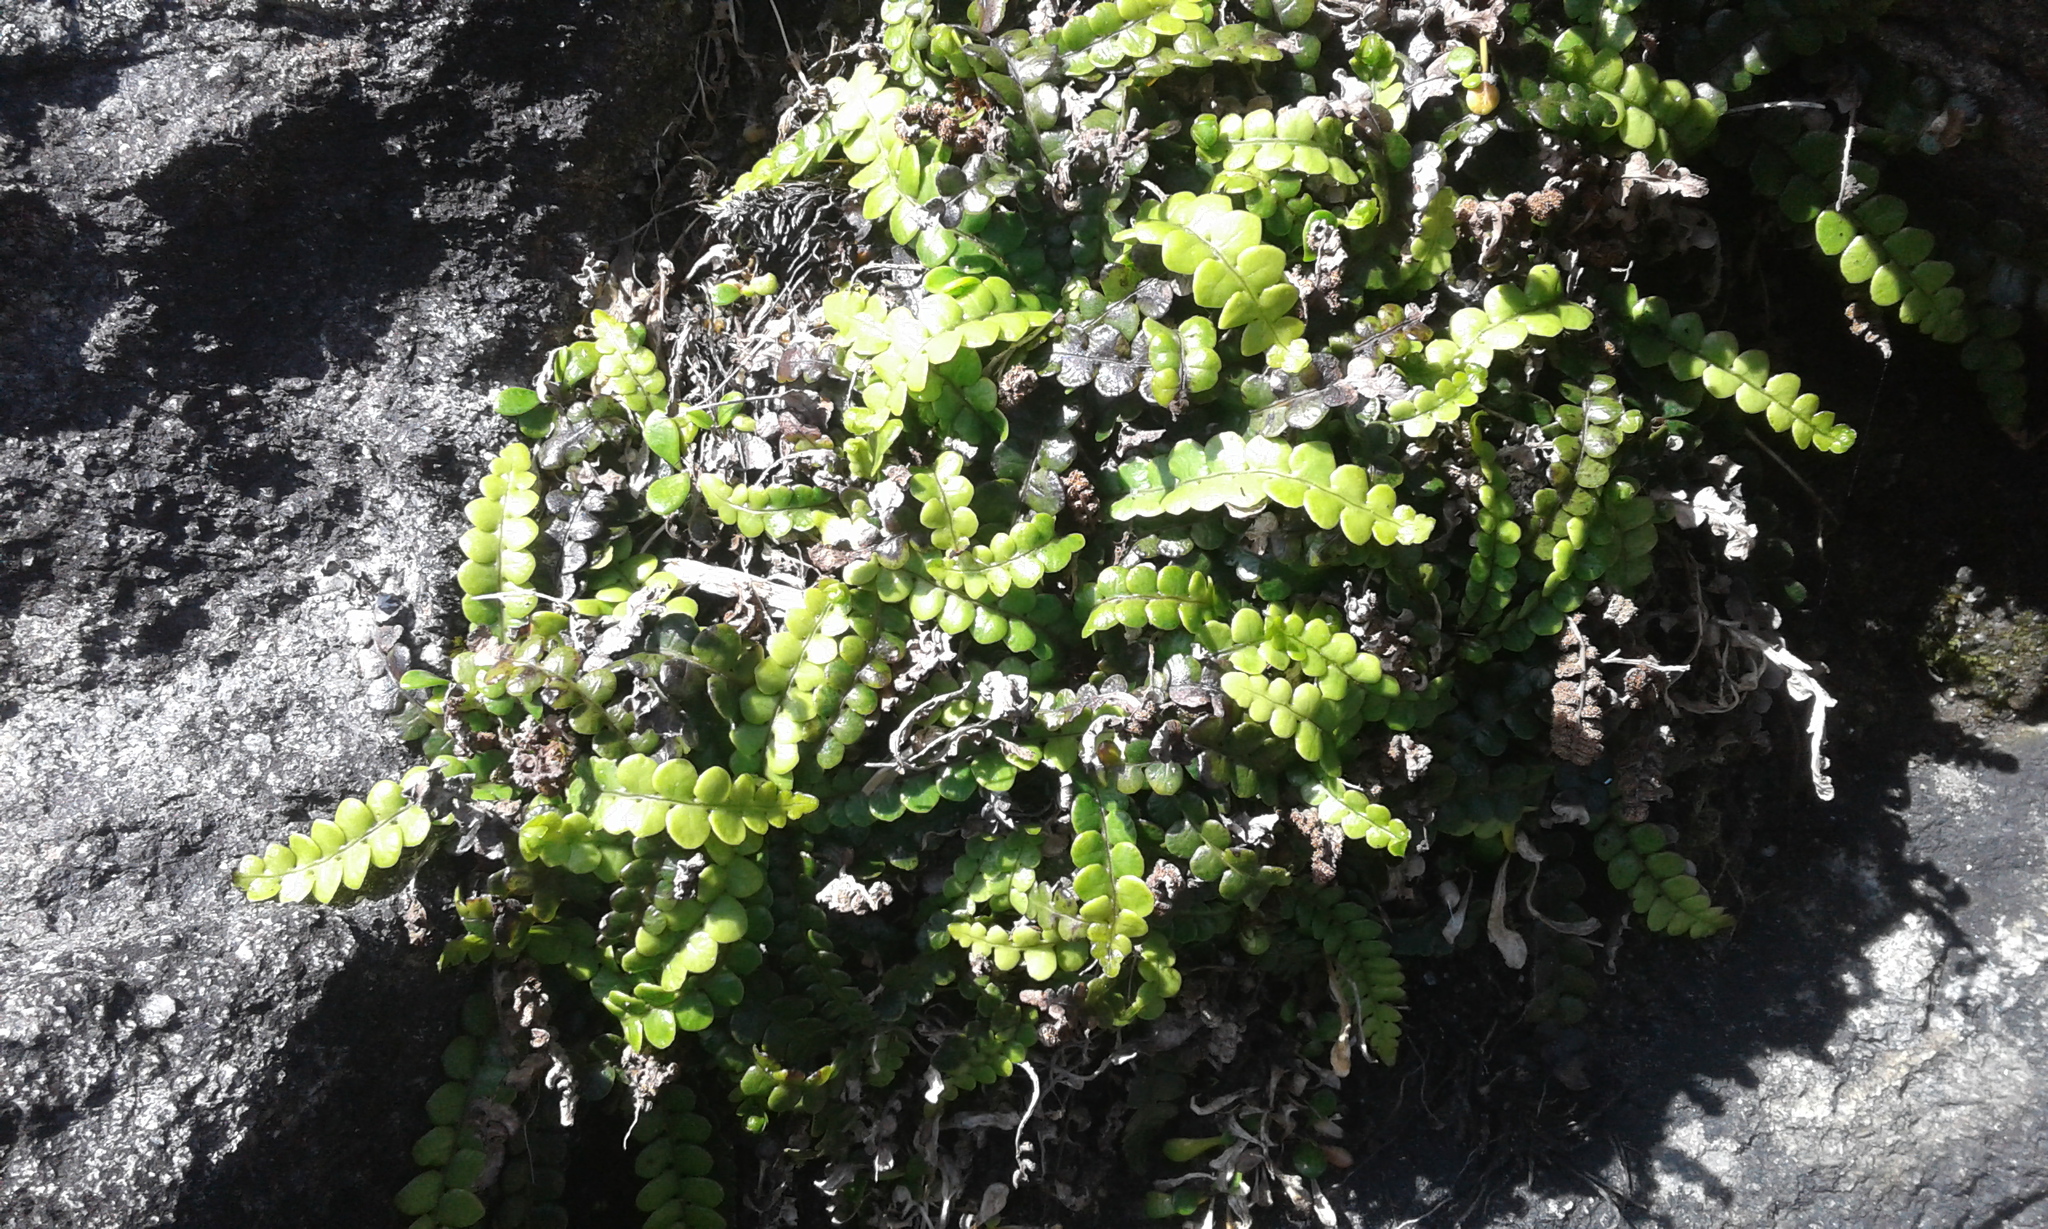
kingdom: Plantae
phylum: Tracheophyta
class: Polypodiopsida
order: Polypodiales
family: Blechnaceae
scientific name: Blechnaceae
